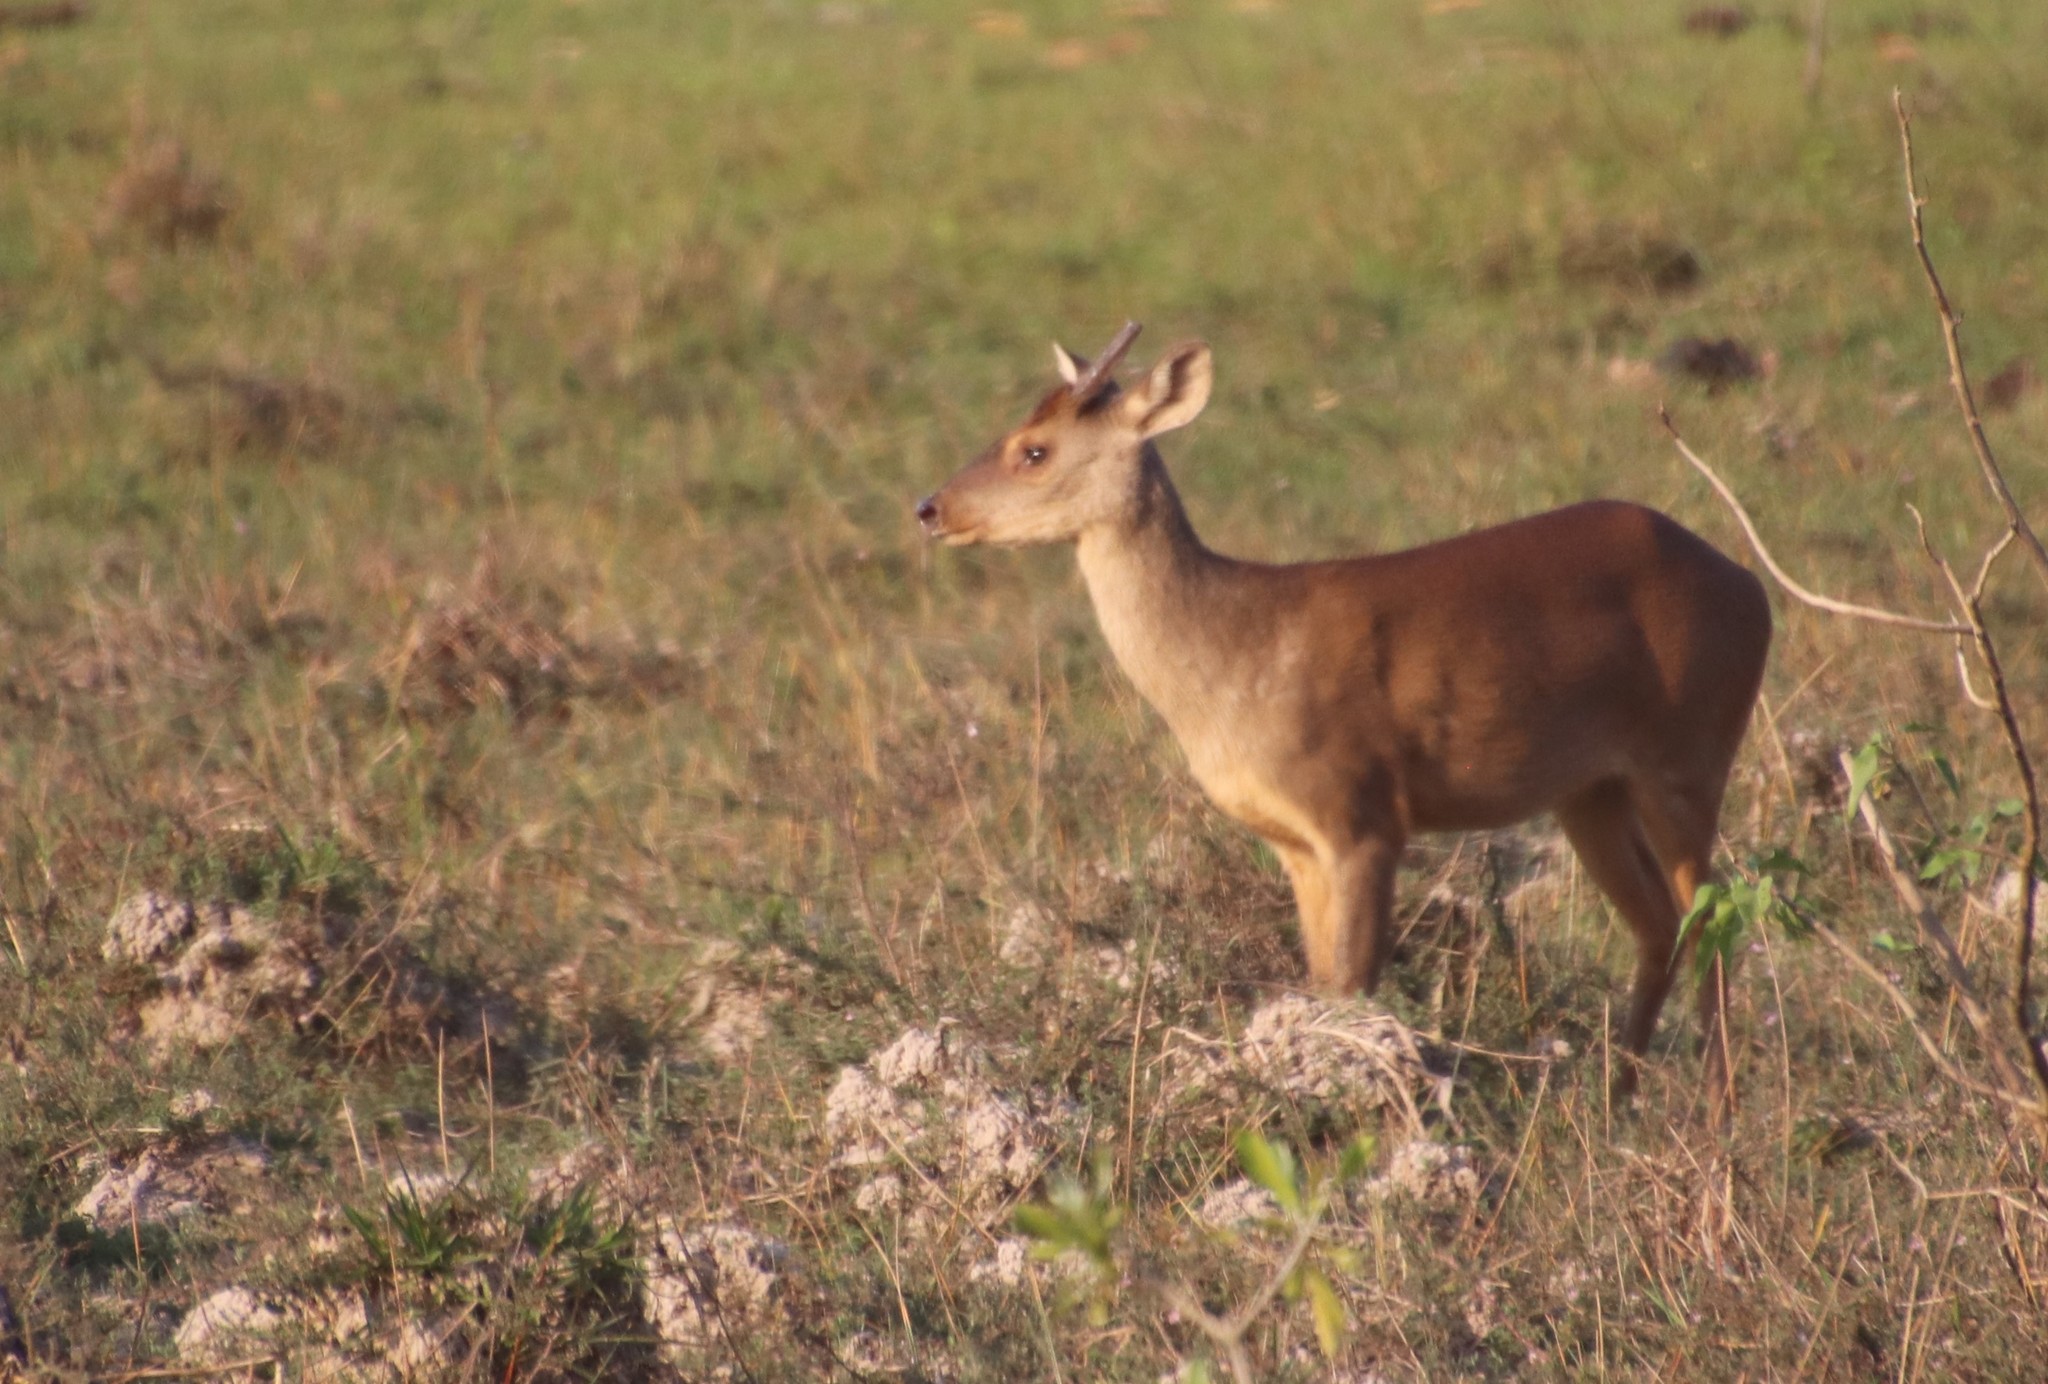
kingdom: Animalia
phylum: Chordata
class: Mammalia
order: Artiodactyla
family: Cervidae
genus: Mazama
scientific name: Mazama gouazoubira
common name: Gray brocket
